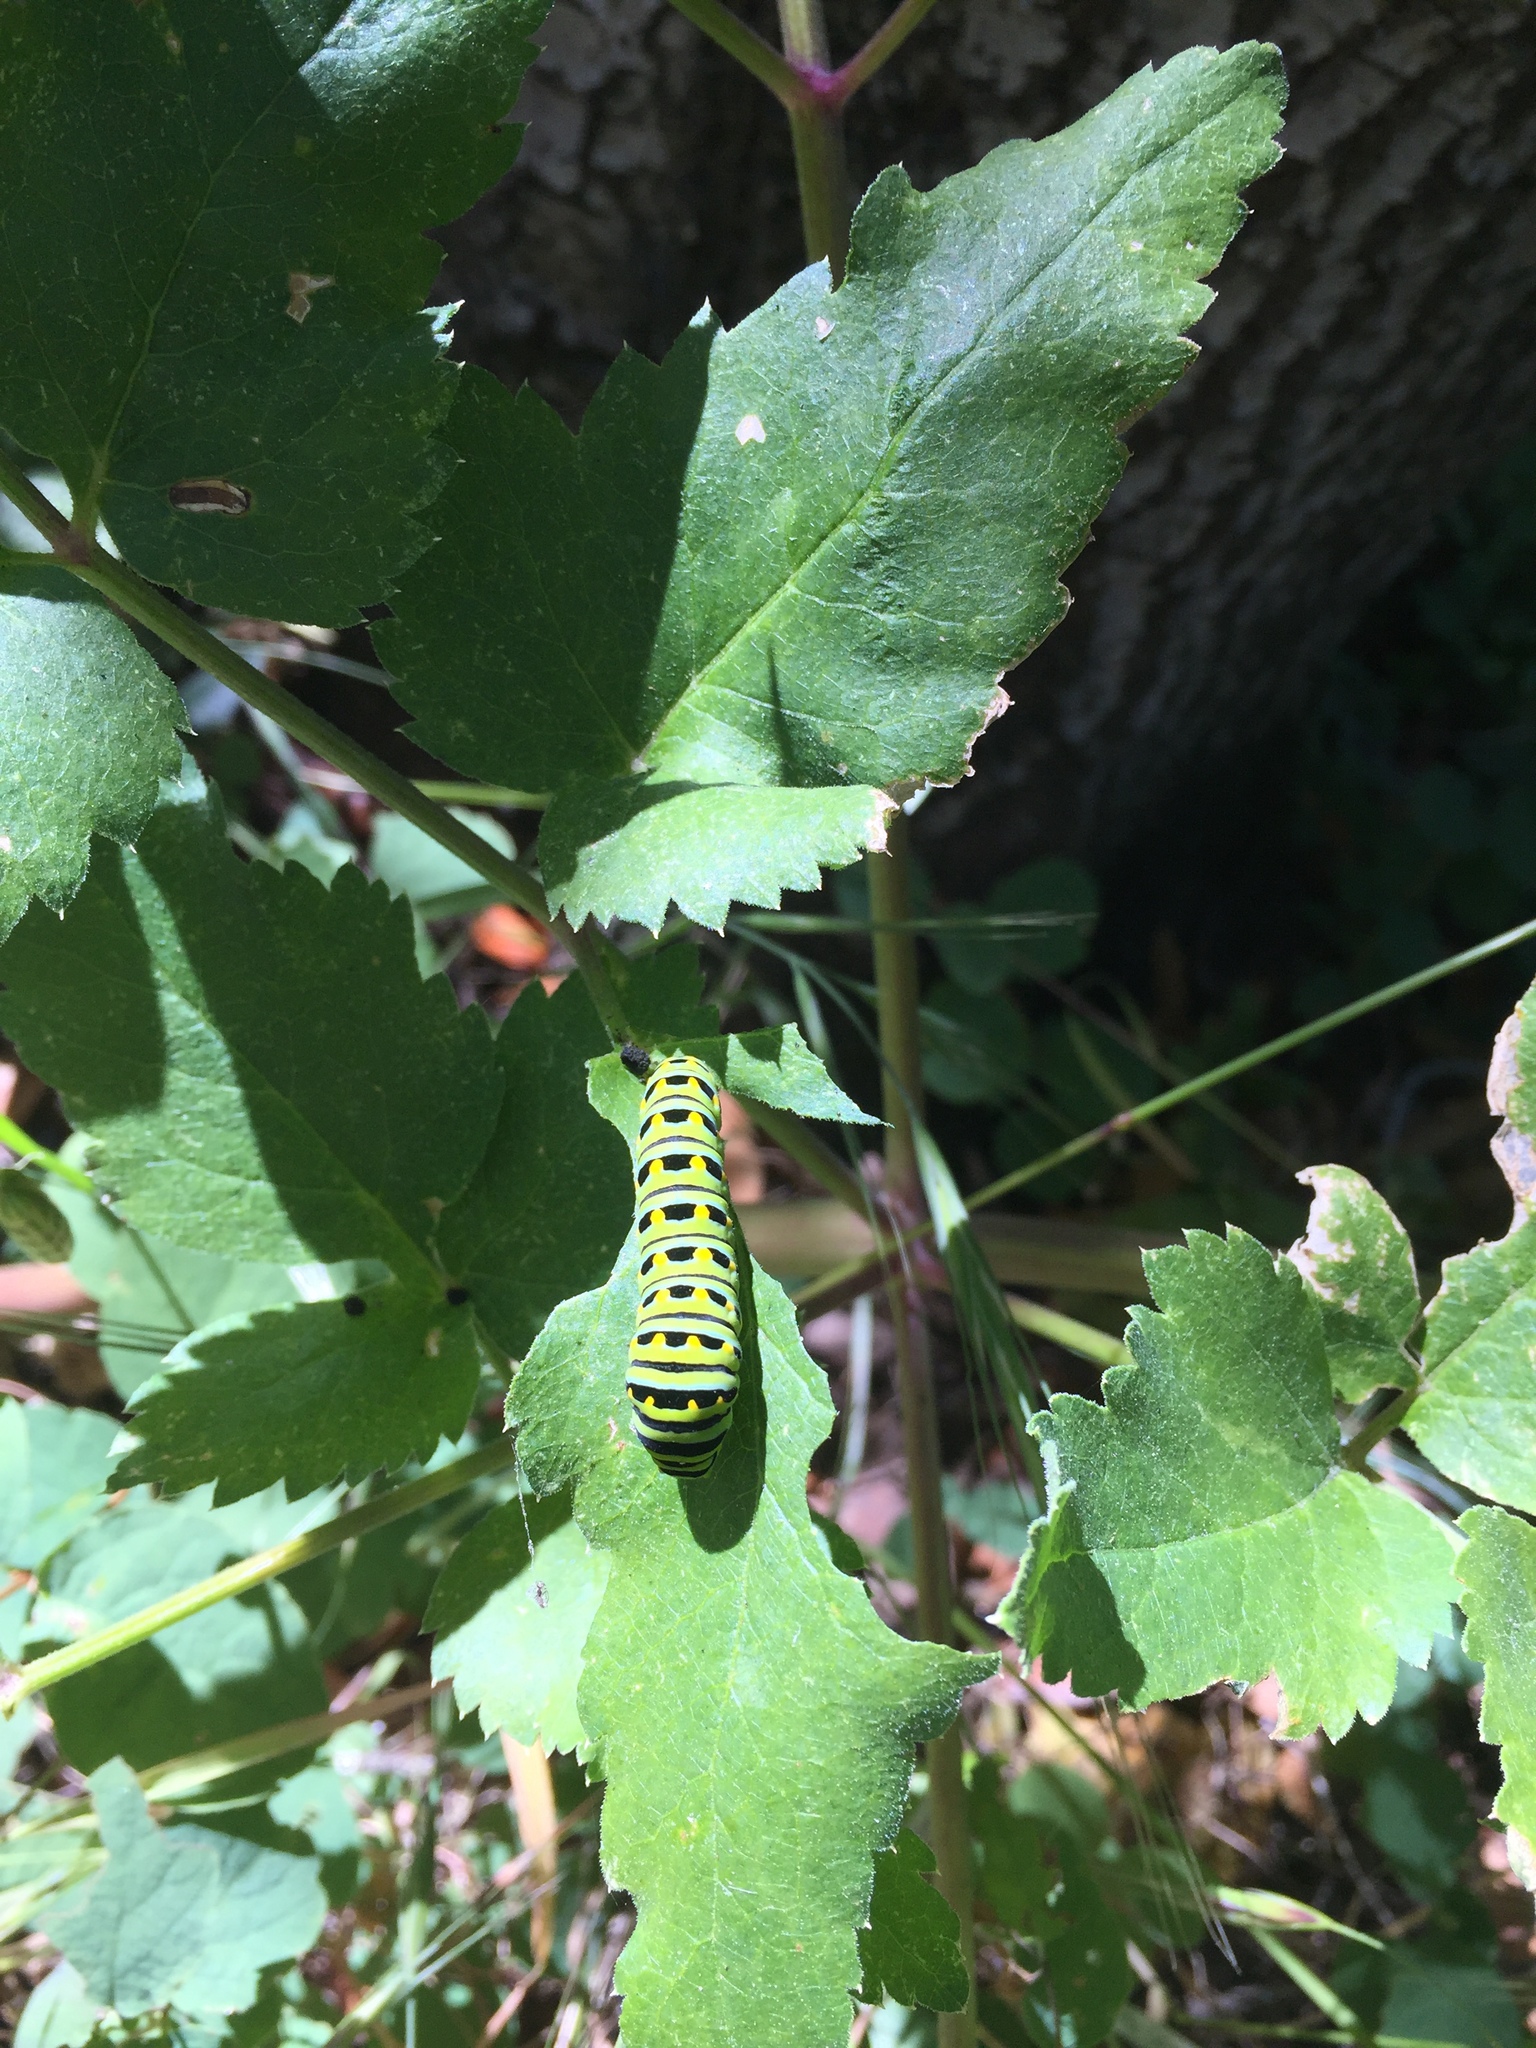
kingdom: Animalia
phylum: Arthropoda
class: Insecta
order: Lepidoptera
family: Papilionidae
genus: Papilio
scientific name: Papilio zelicaon
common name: Anise swallowtail
